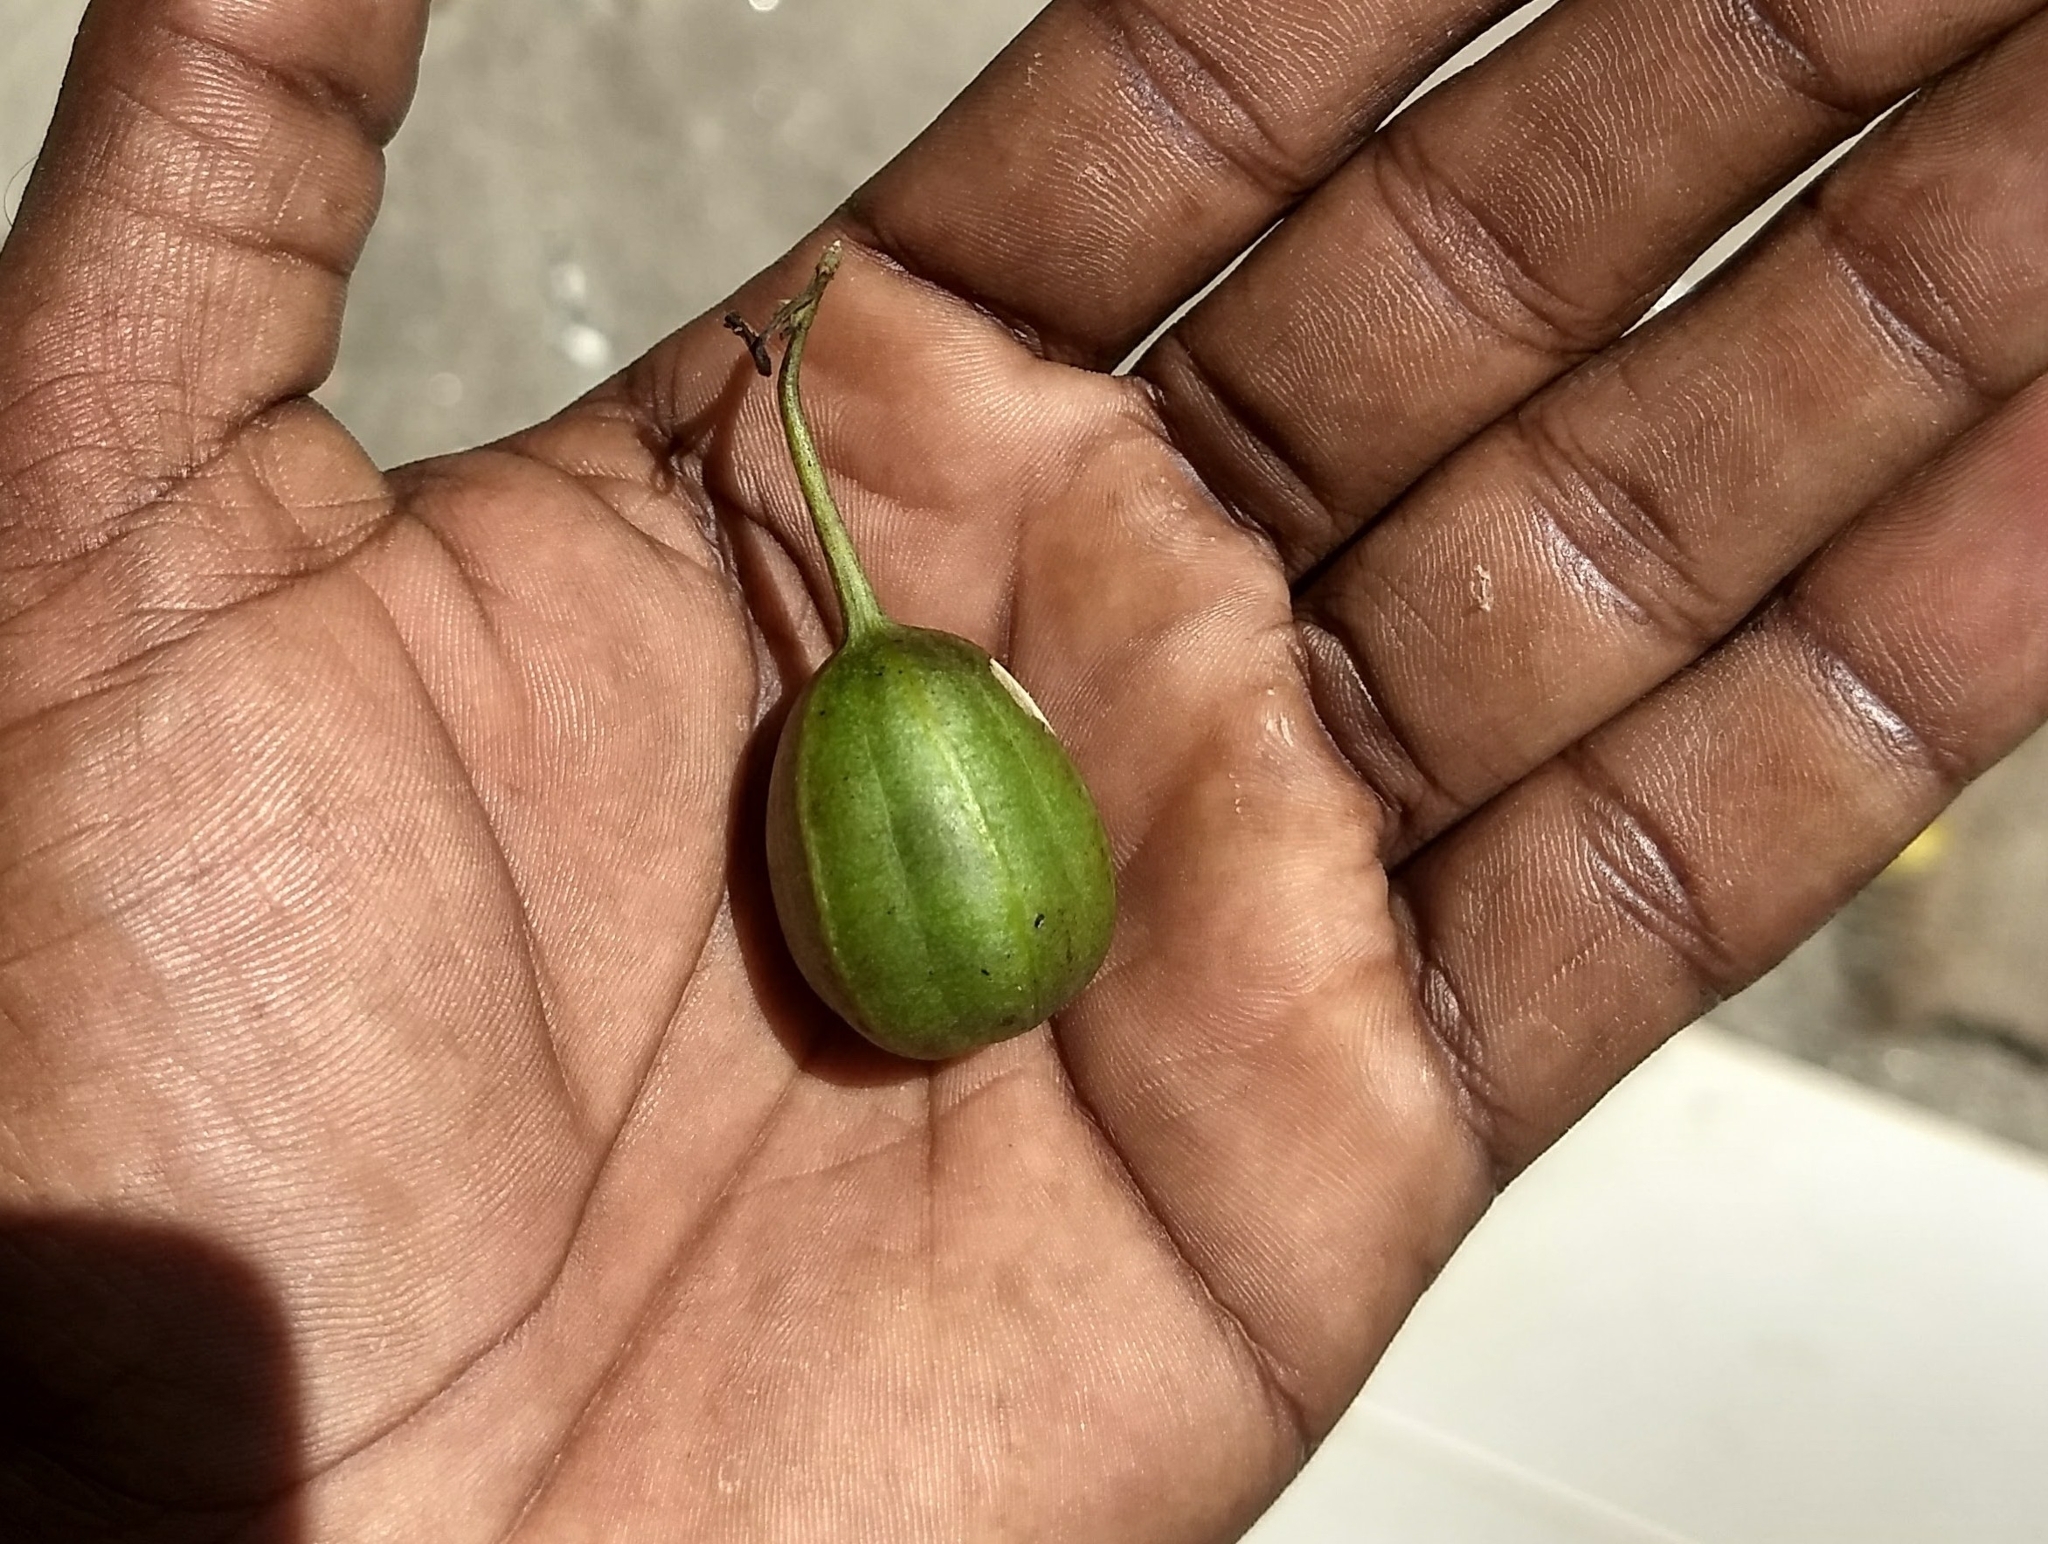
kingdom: Plantae
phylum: Tracheophyta
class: Magnoliopsida
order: Piperales
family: Aristolochiaceae
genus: Aristolochia
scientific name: Aristolochia indica
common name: Indian birthwort
